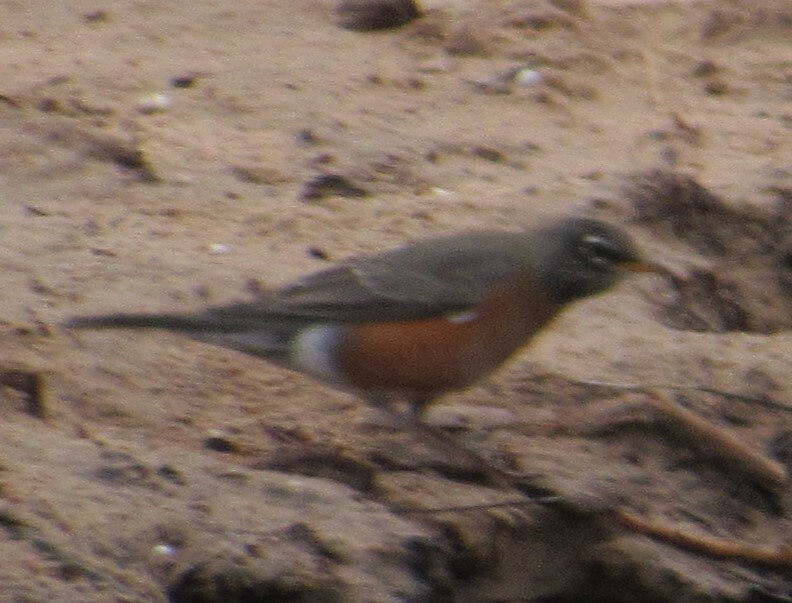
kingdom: Animalia
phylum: Chordata
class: Aves
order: Passeriformes
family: Turdidae
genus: Turdus
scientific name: Turdus migratorius
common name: American robin
